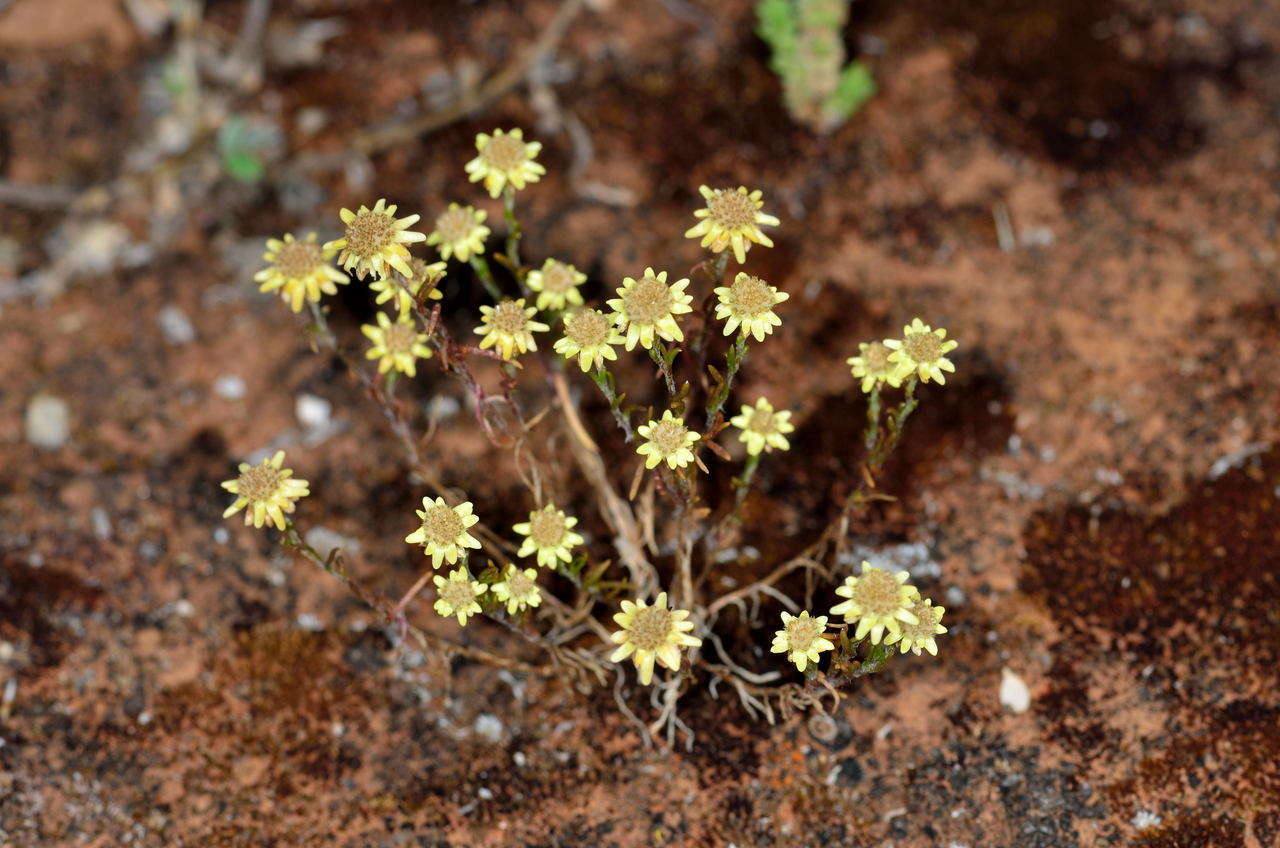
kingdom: Plantae
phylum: Tracheophyta
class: Magnoliopsida
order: Asterales
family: Asteraceae
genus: Hyalosperma
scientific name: Hyalosperma semisterile
